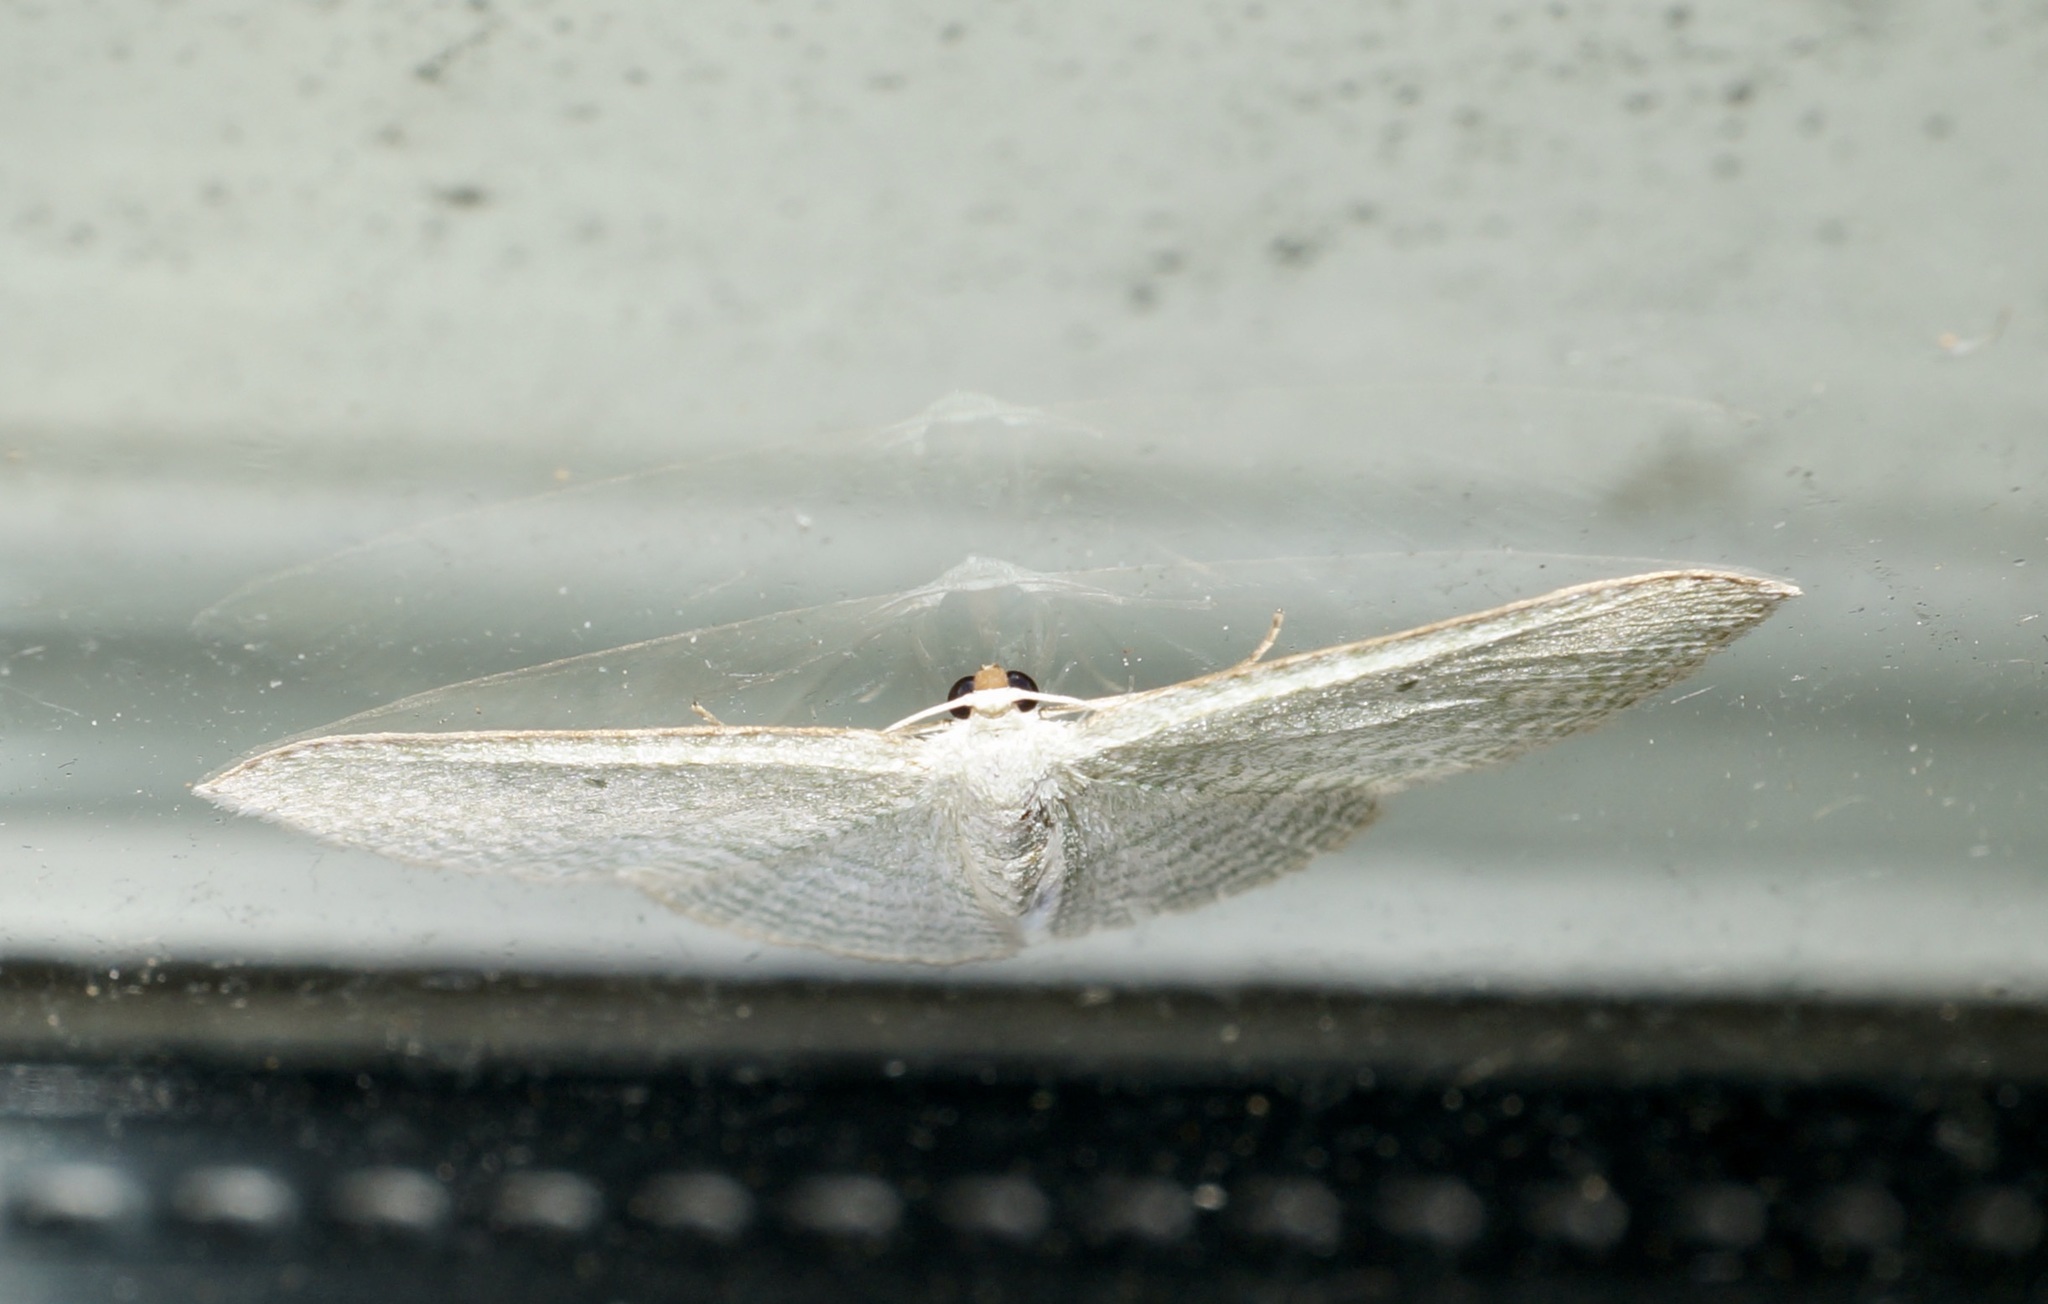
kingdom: Animalia
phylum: Arthropoda
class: Insecta
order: Lepidoptera
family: Geometridae
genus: Poecilasthena
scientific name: Poecilasthena pulchraria
